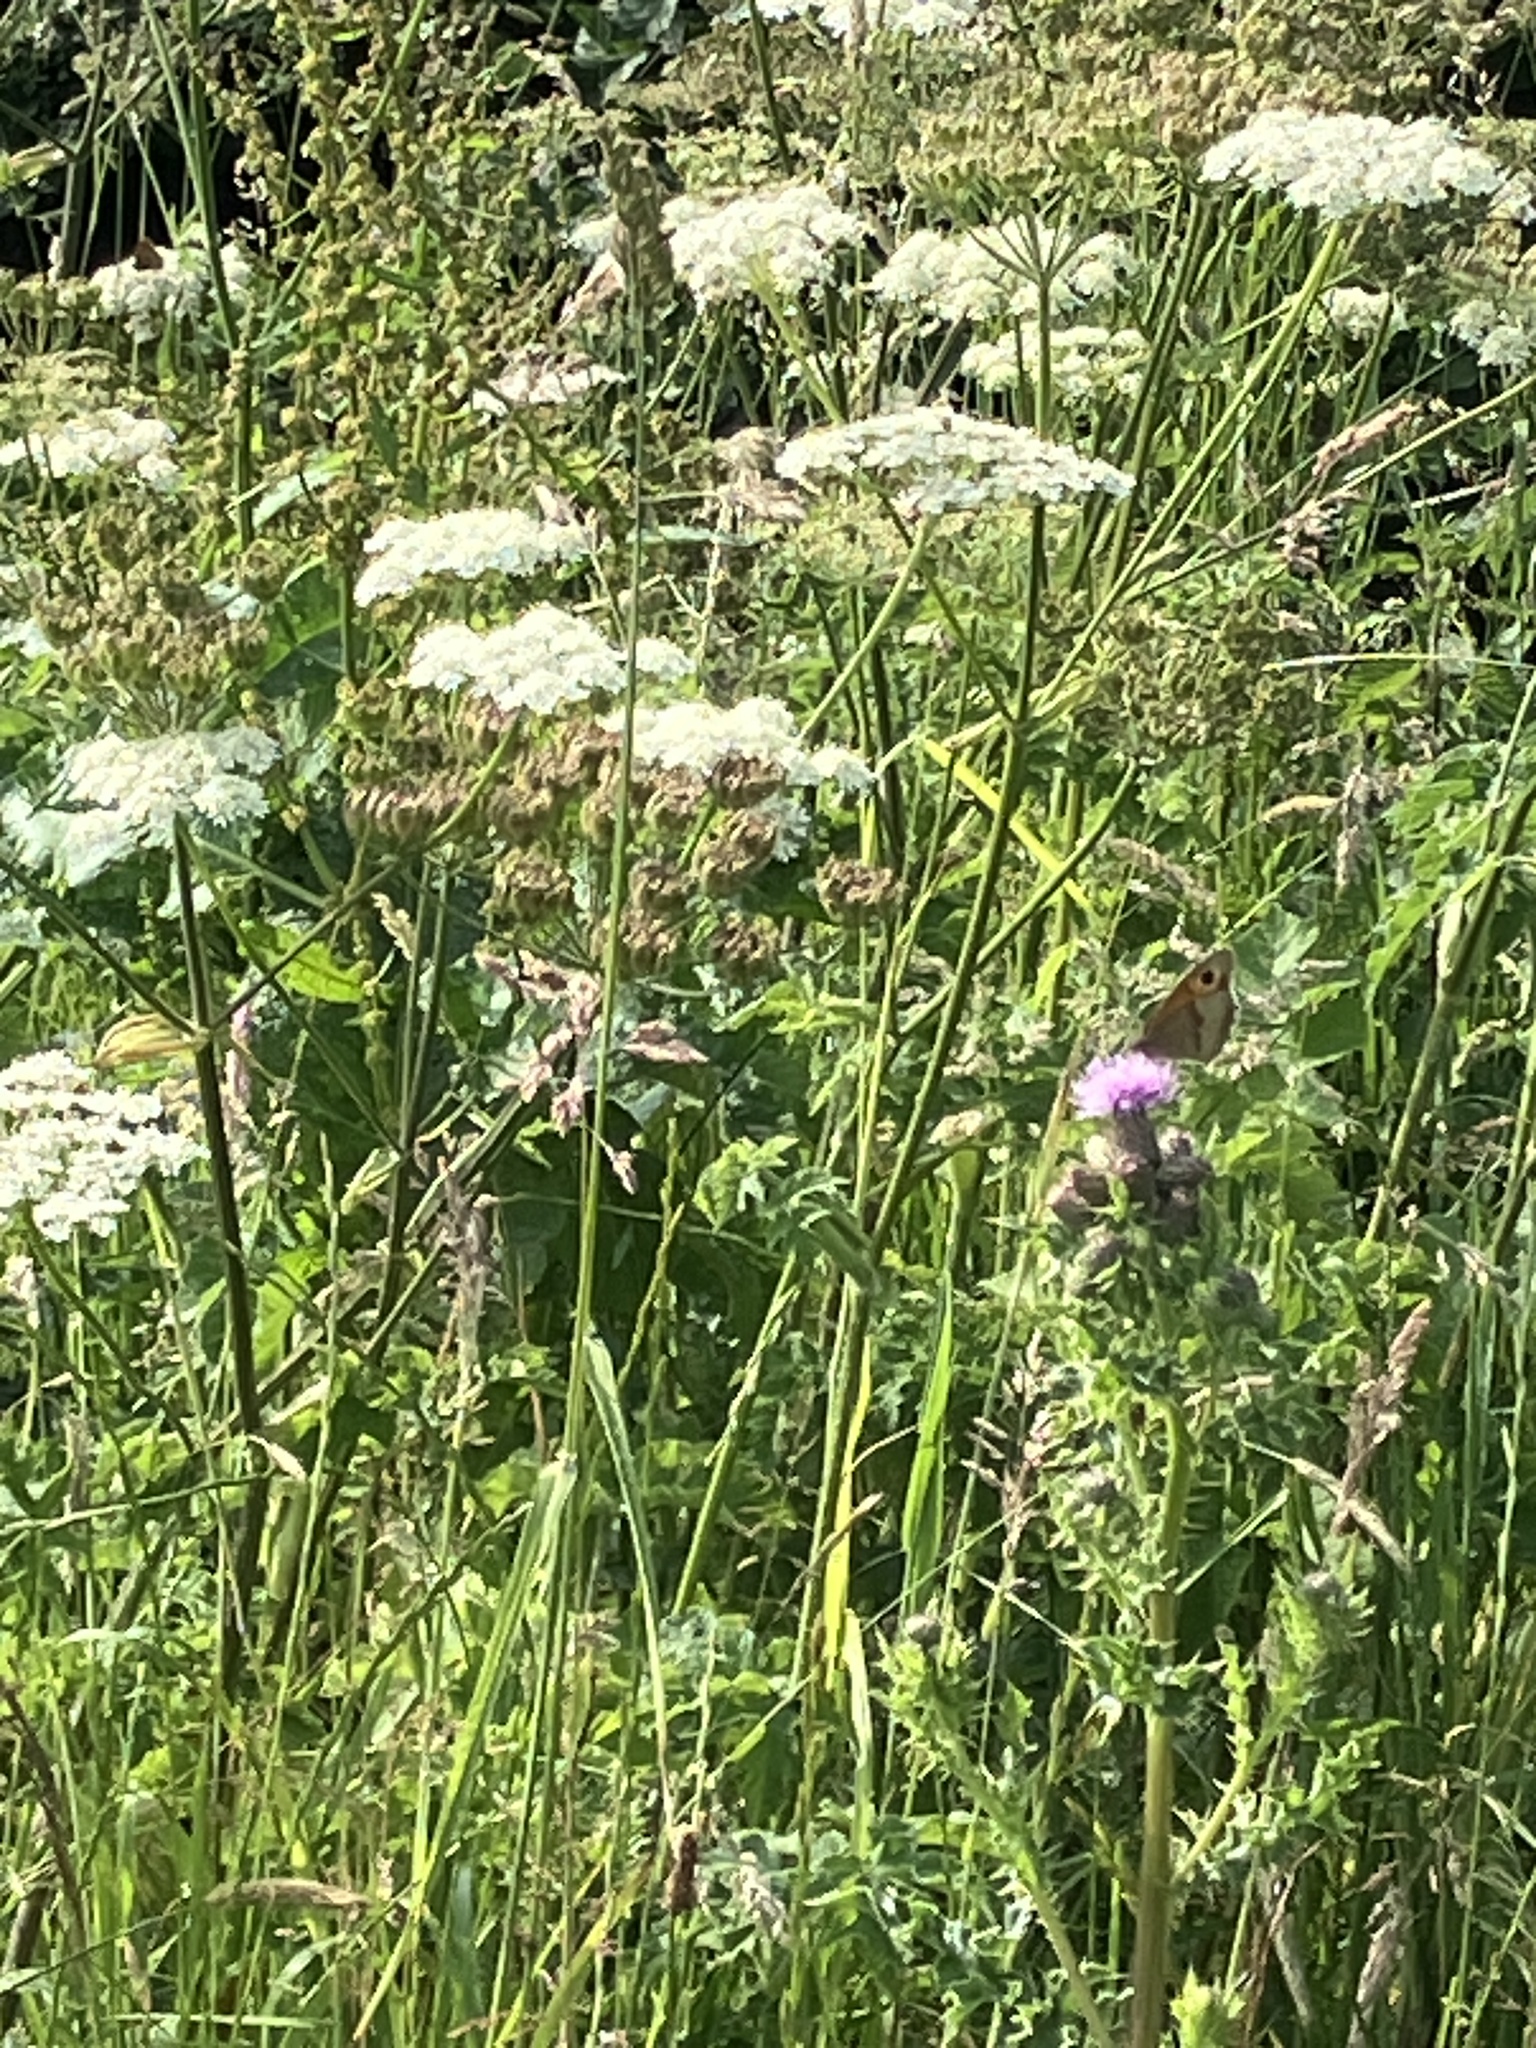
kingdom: Animalia
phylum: Arthropoda
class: Insecta
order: Lepidoptera
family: Nymphalidae
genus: Maniola
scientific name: Maniola jurtina
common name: Meadow brown
